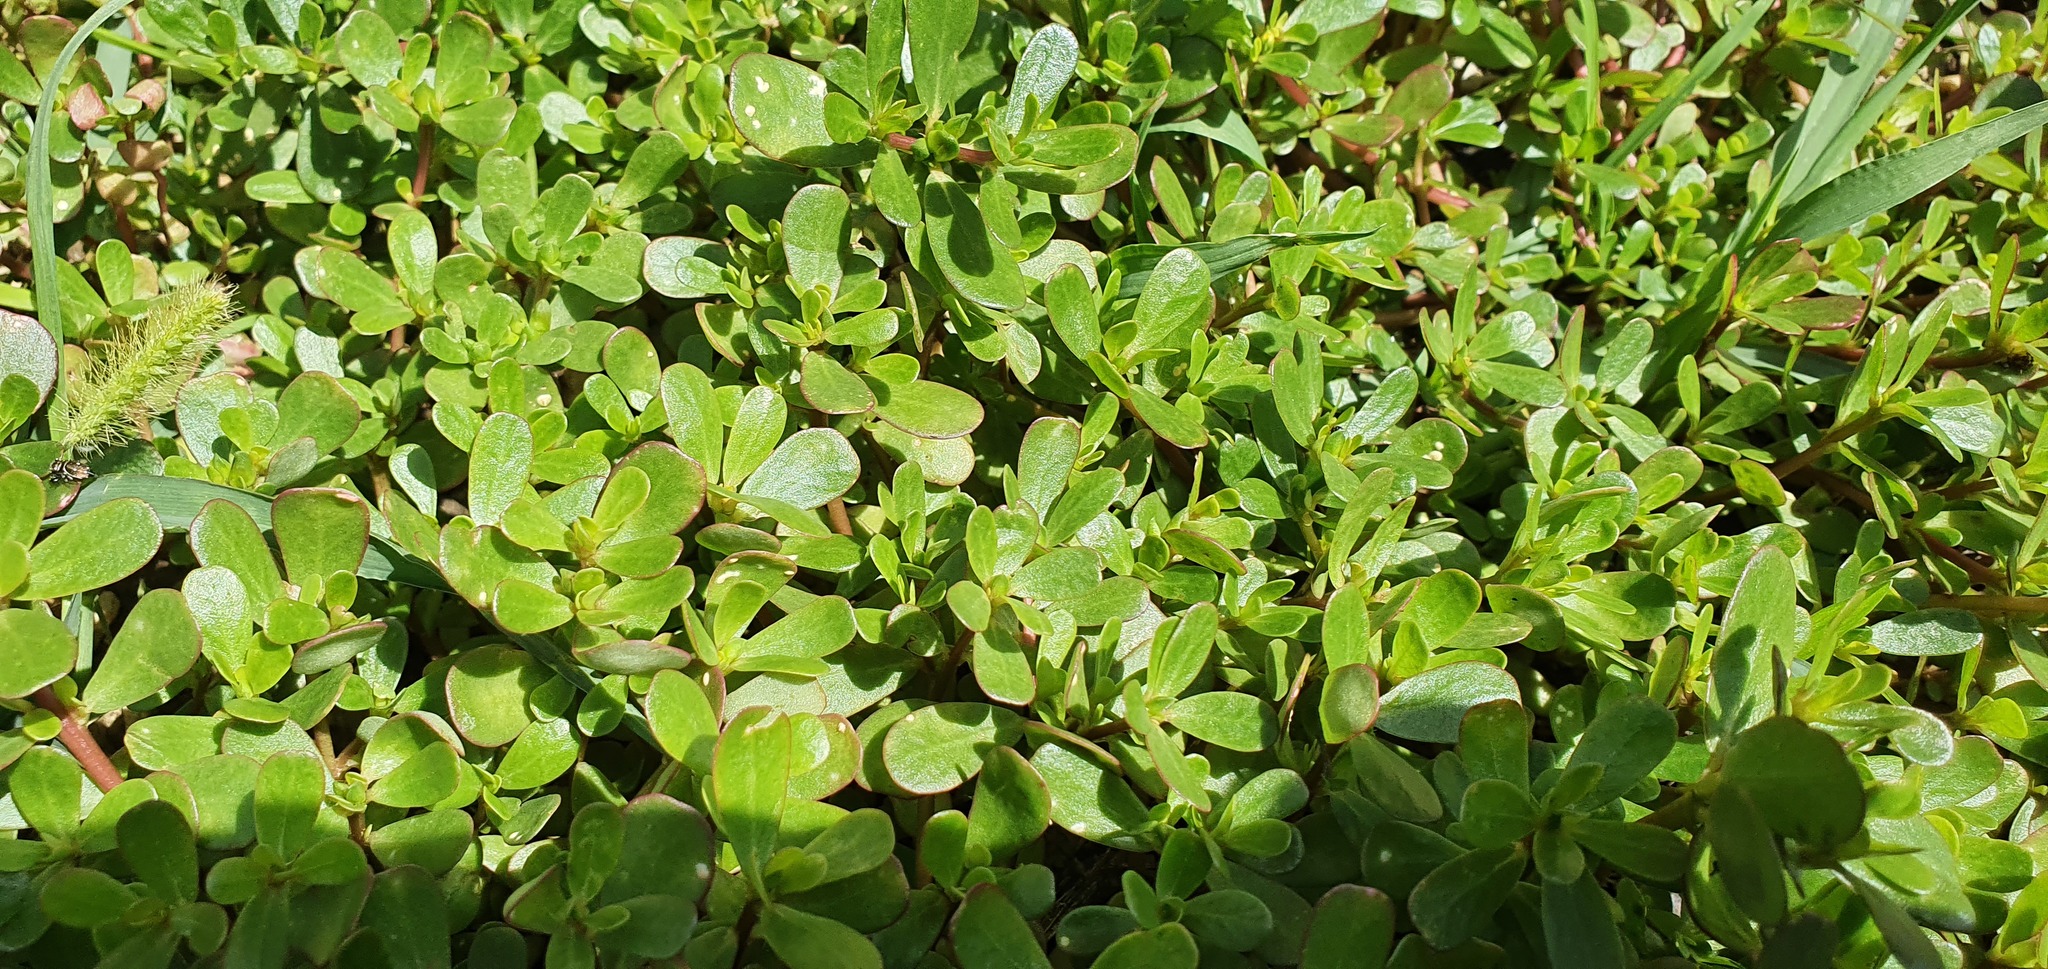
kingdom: Plantae
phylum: Tracheophyta
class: Magnoliopsida
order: Caryophyllales
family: Portulacaceae
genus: Portulaca
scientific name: Portulaca oleracea
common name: Common purslane
